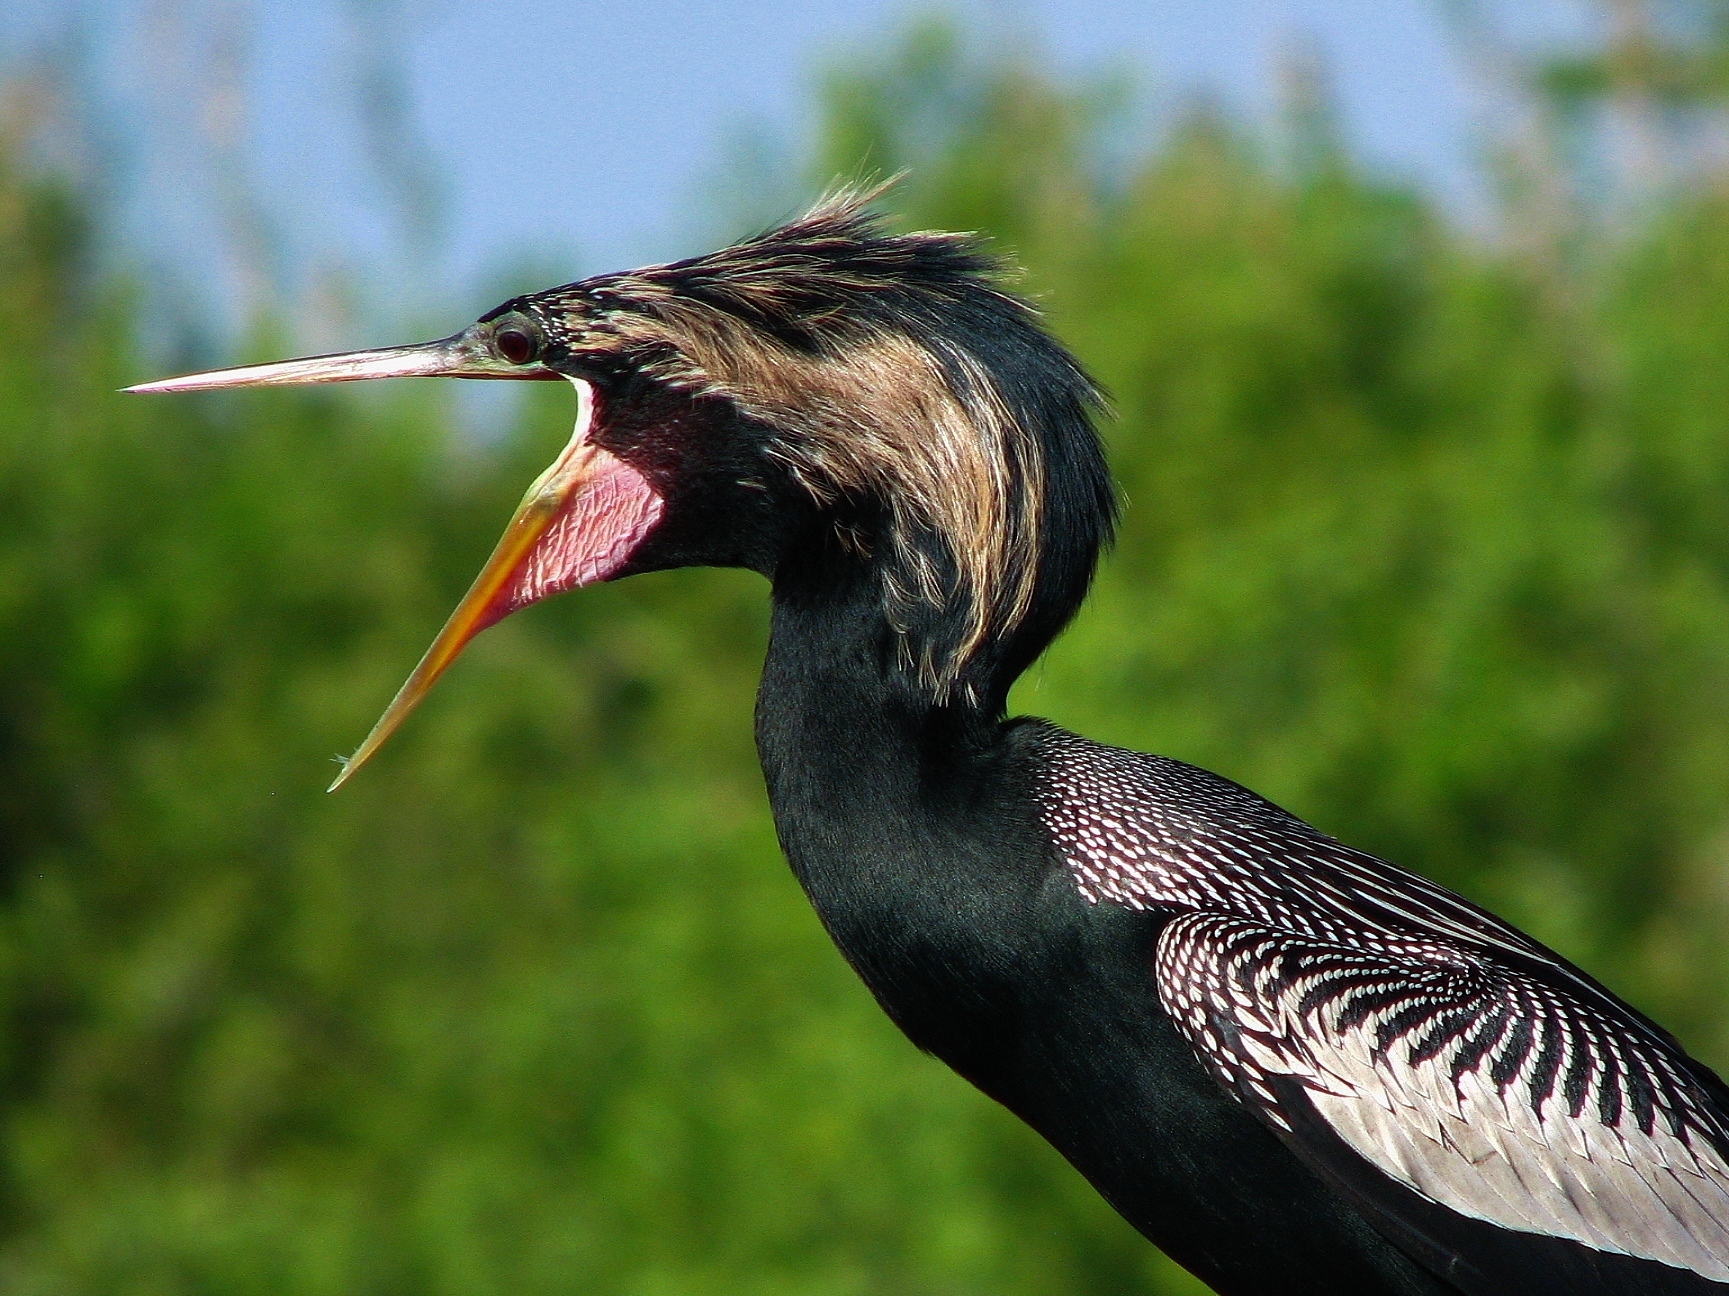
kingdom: Animalia
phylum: Chordata
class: Aves
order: Suliformes
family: Anhingidae
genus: Anhinga
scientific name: Anhinga anhinga
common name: Anhinga
